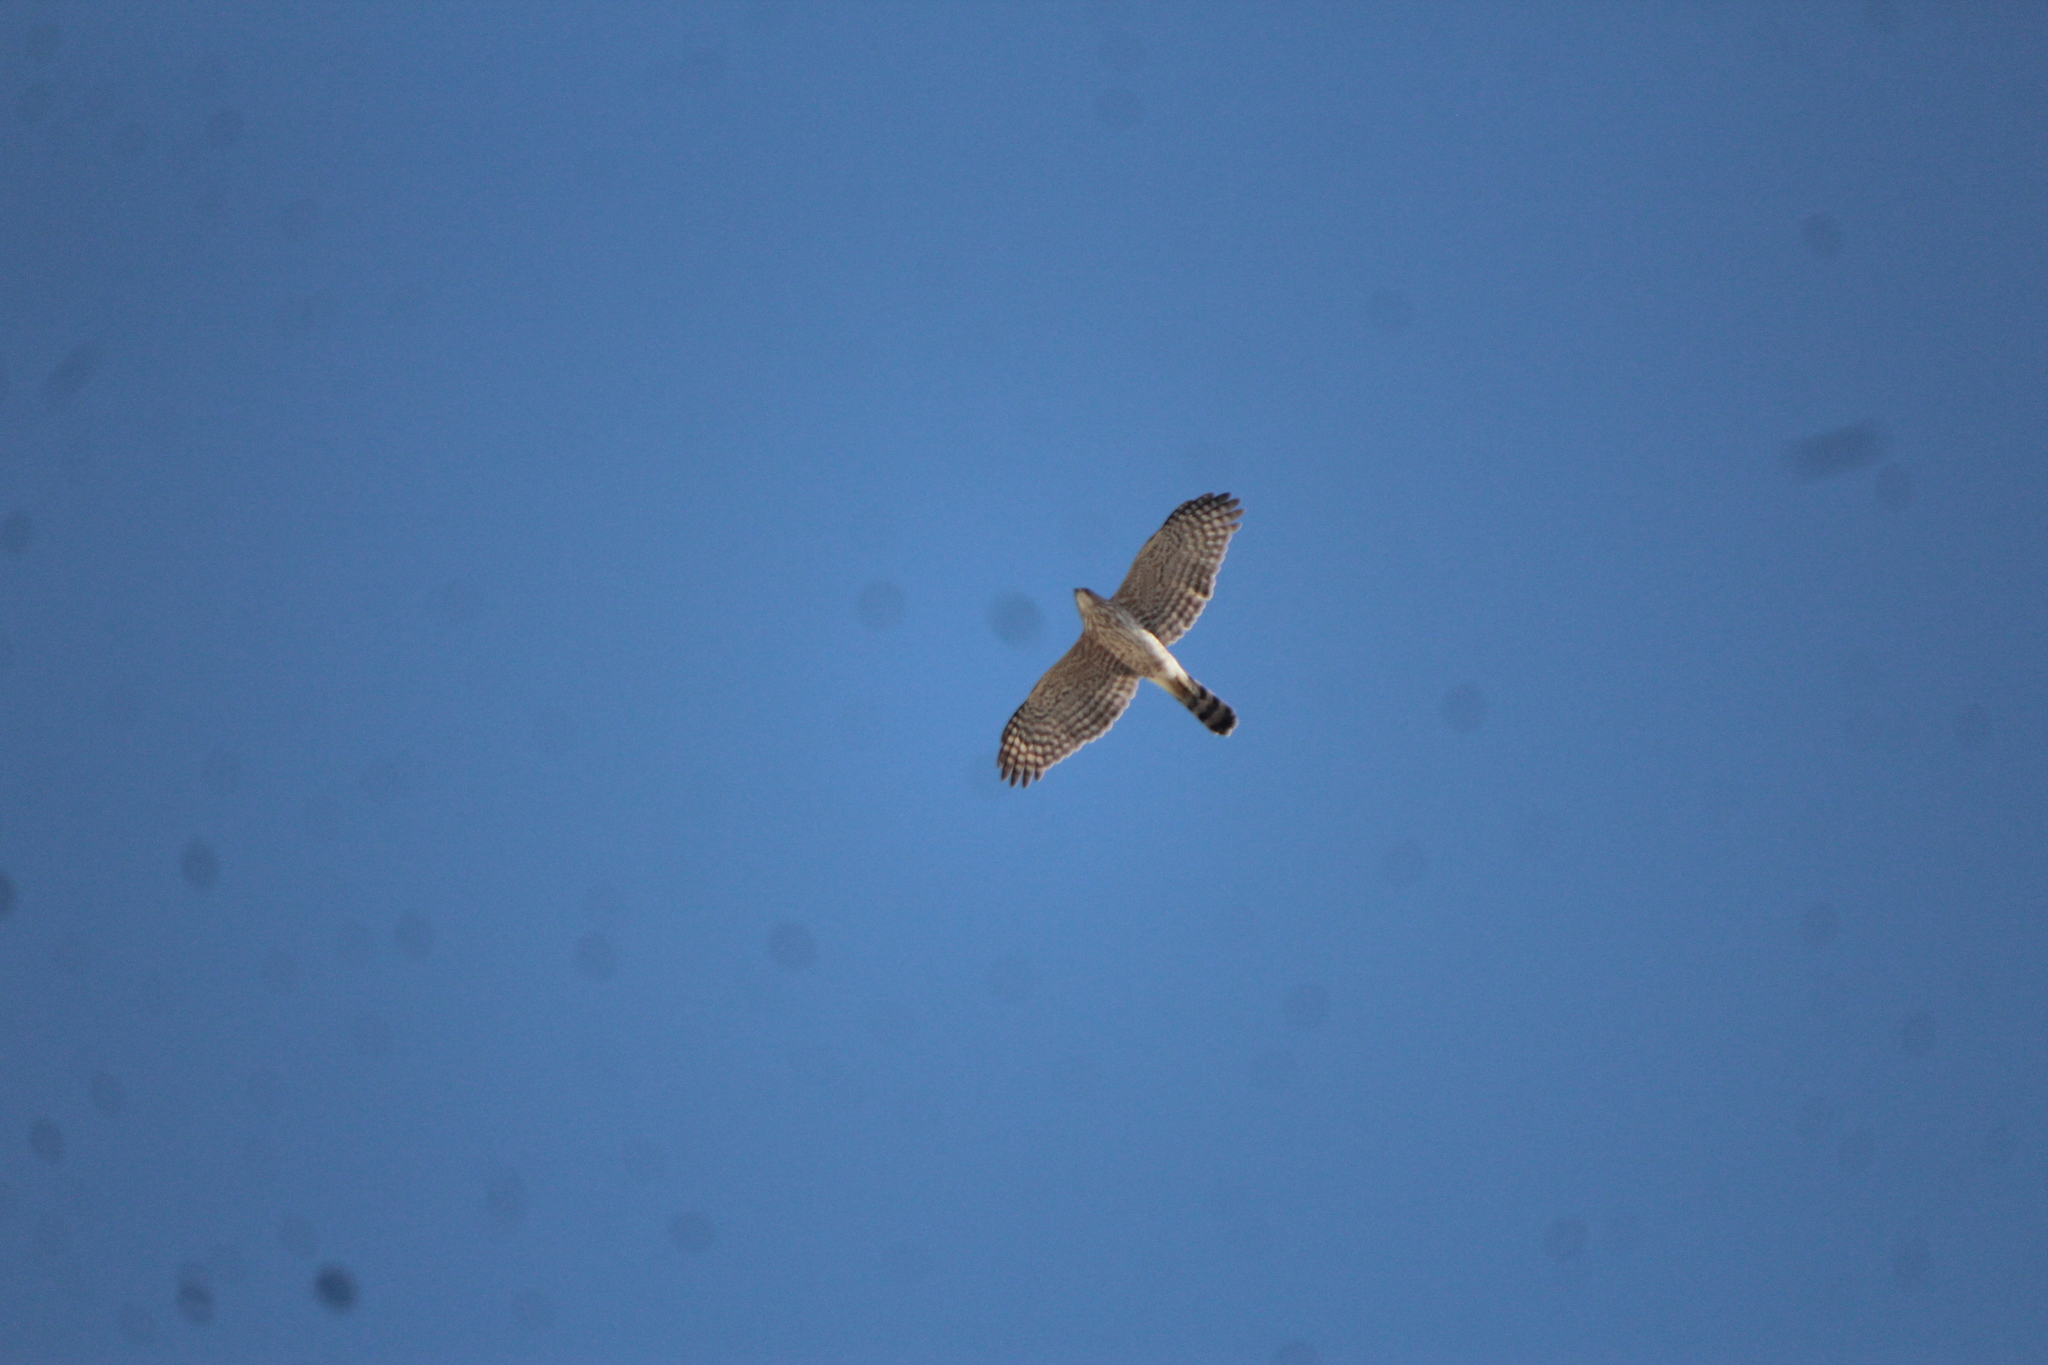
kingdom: Animalia
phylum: Chordata
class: Aves
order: Accipitriformes
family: Accipitridae
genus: Accipiter
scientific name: Accipiter cooperii
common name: Cooper's hawk
